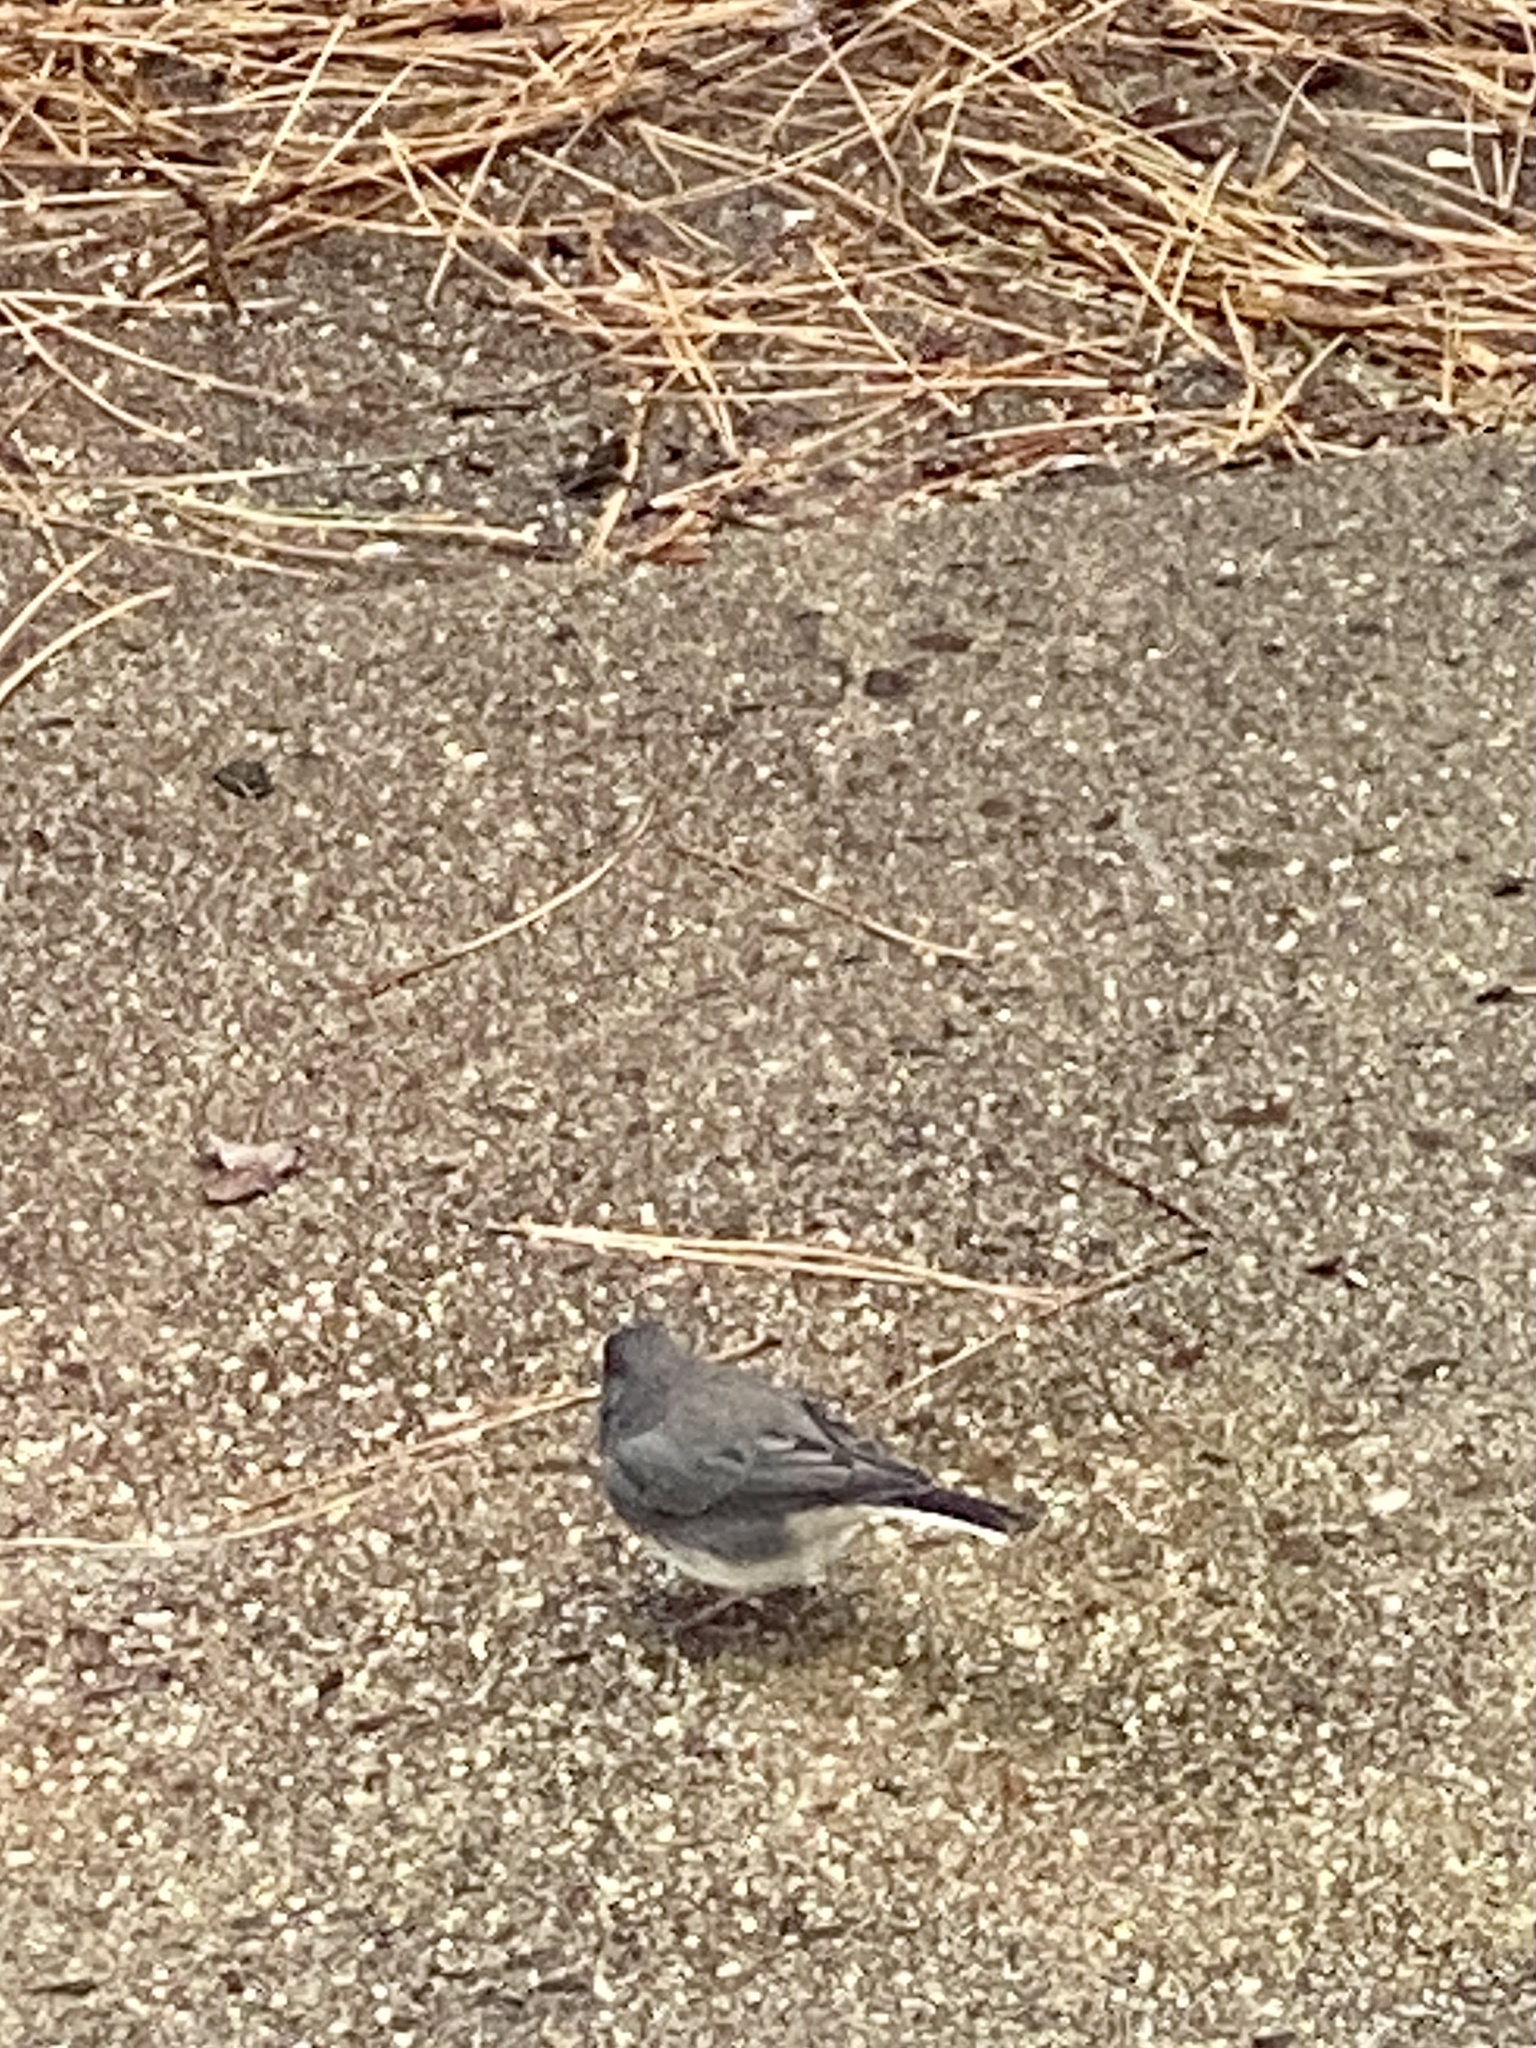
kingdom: Animalia
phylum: Chordata
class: Aves
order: Passeriformes
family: Passerellidae
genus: Junco
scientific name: Junco hyemalis
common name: Dark-eyed junco
